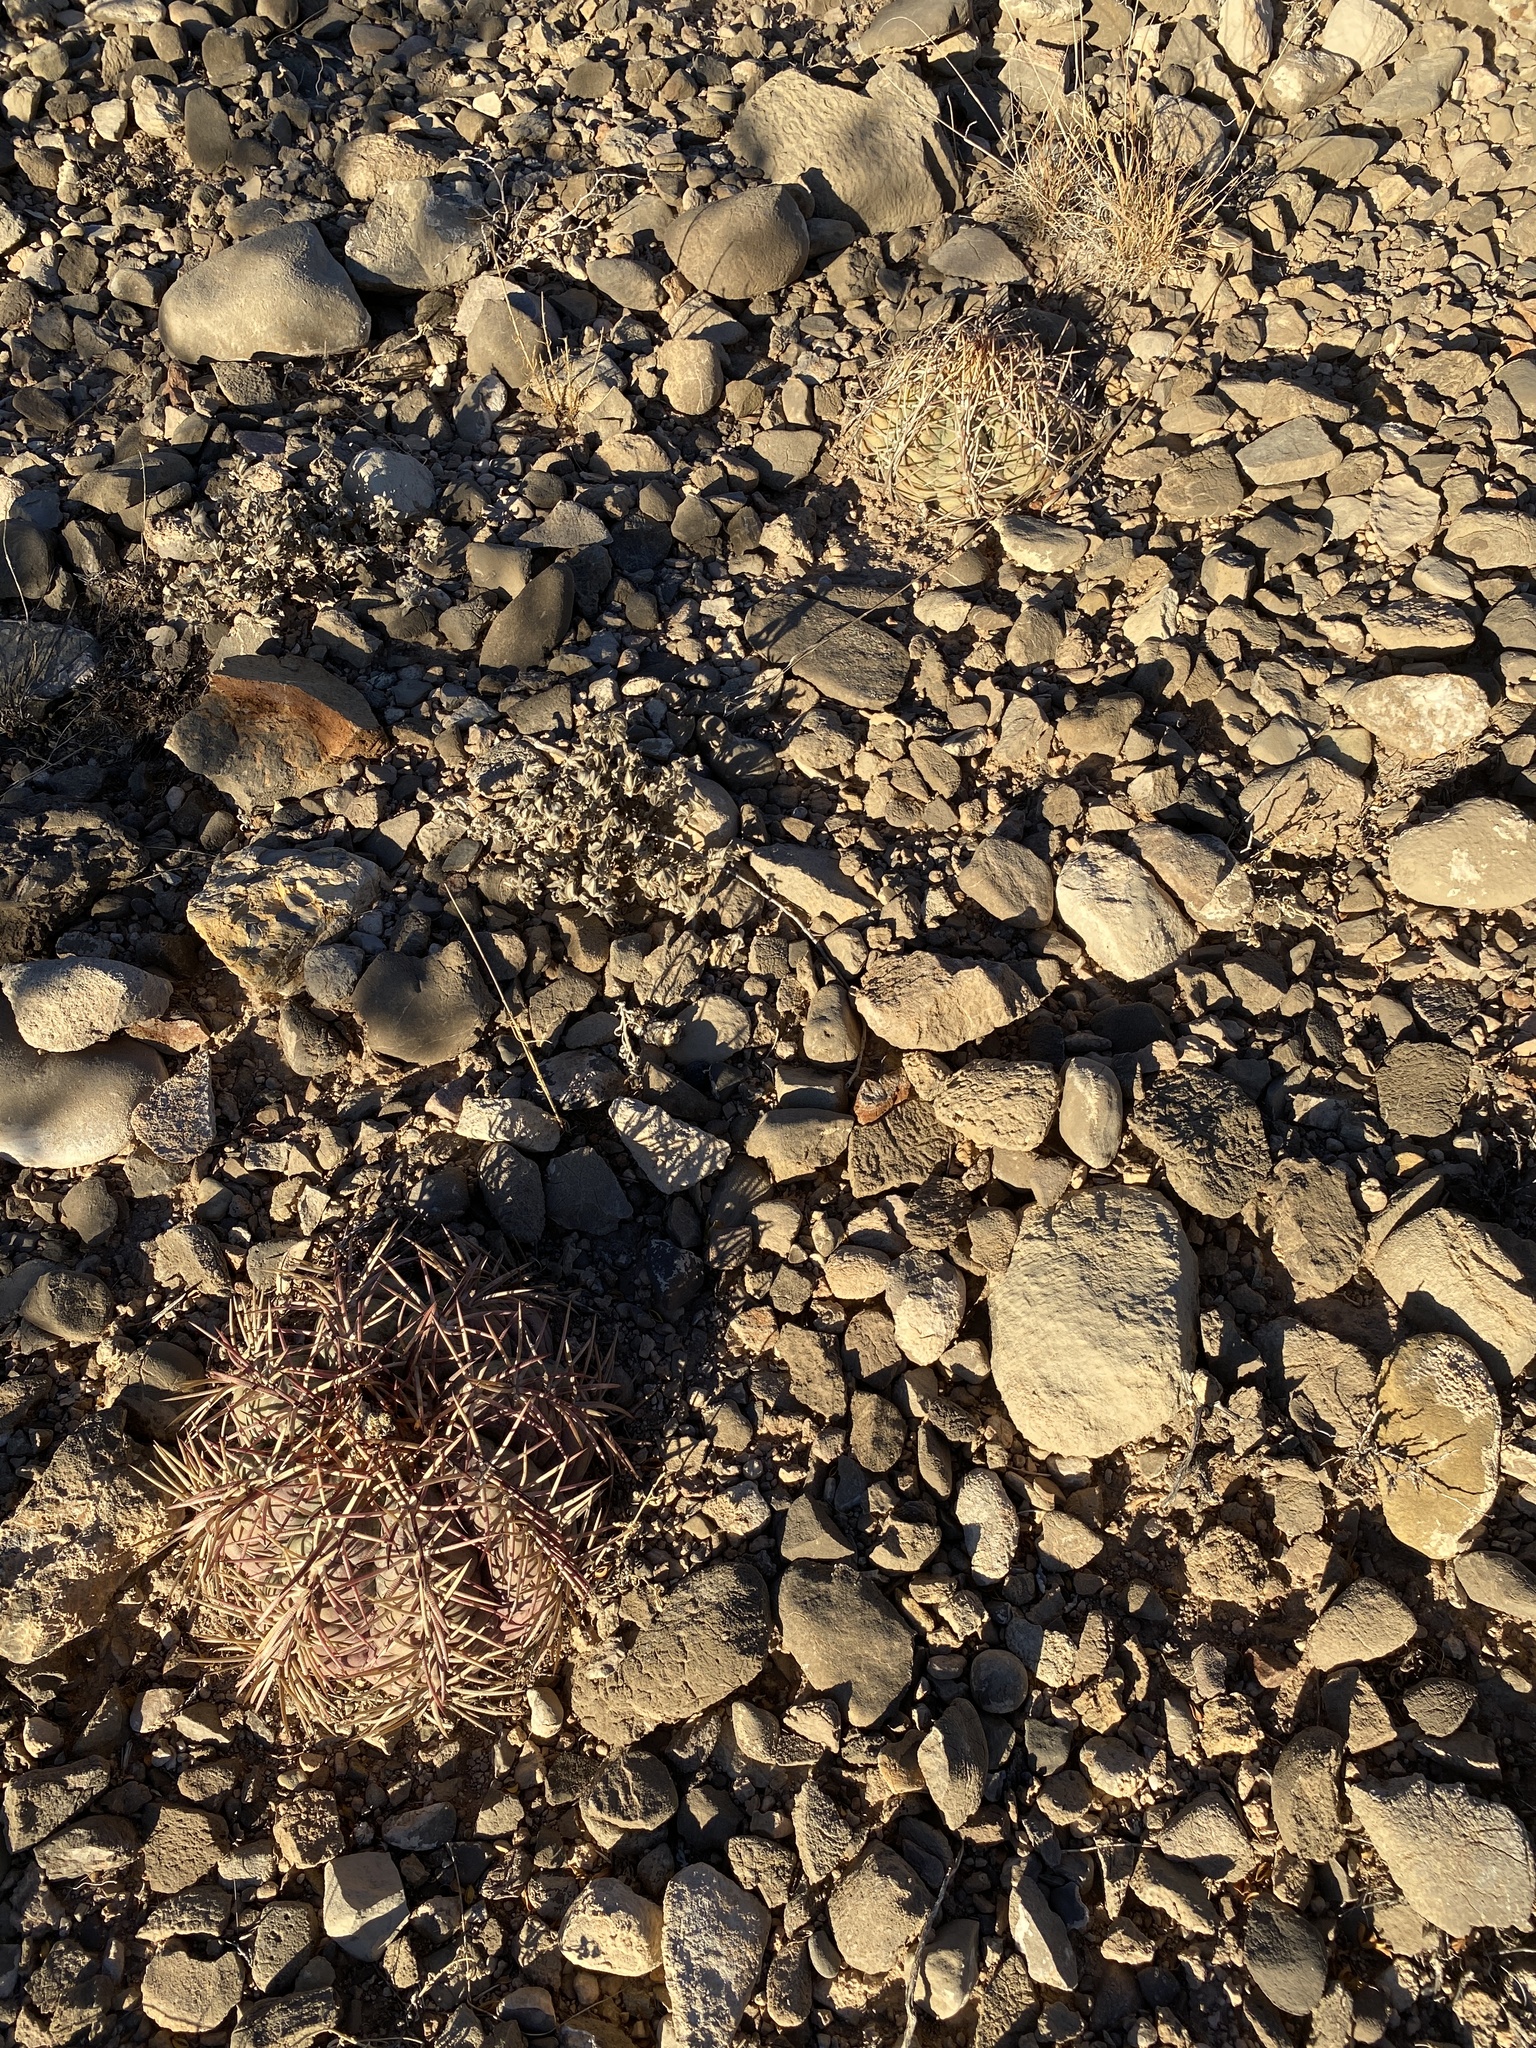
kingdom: Plantae
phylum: Tracheophyta
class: Magnoliopsida
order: Caryophyllales
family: Cactaceae
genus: Echinocactus
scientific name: Echinocactus horizonthalonius
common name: Devilshead
